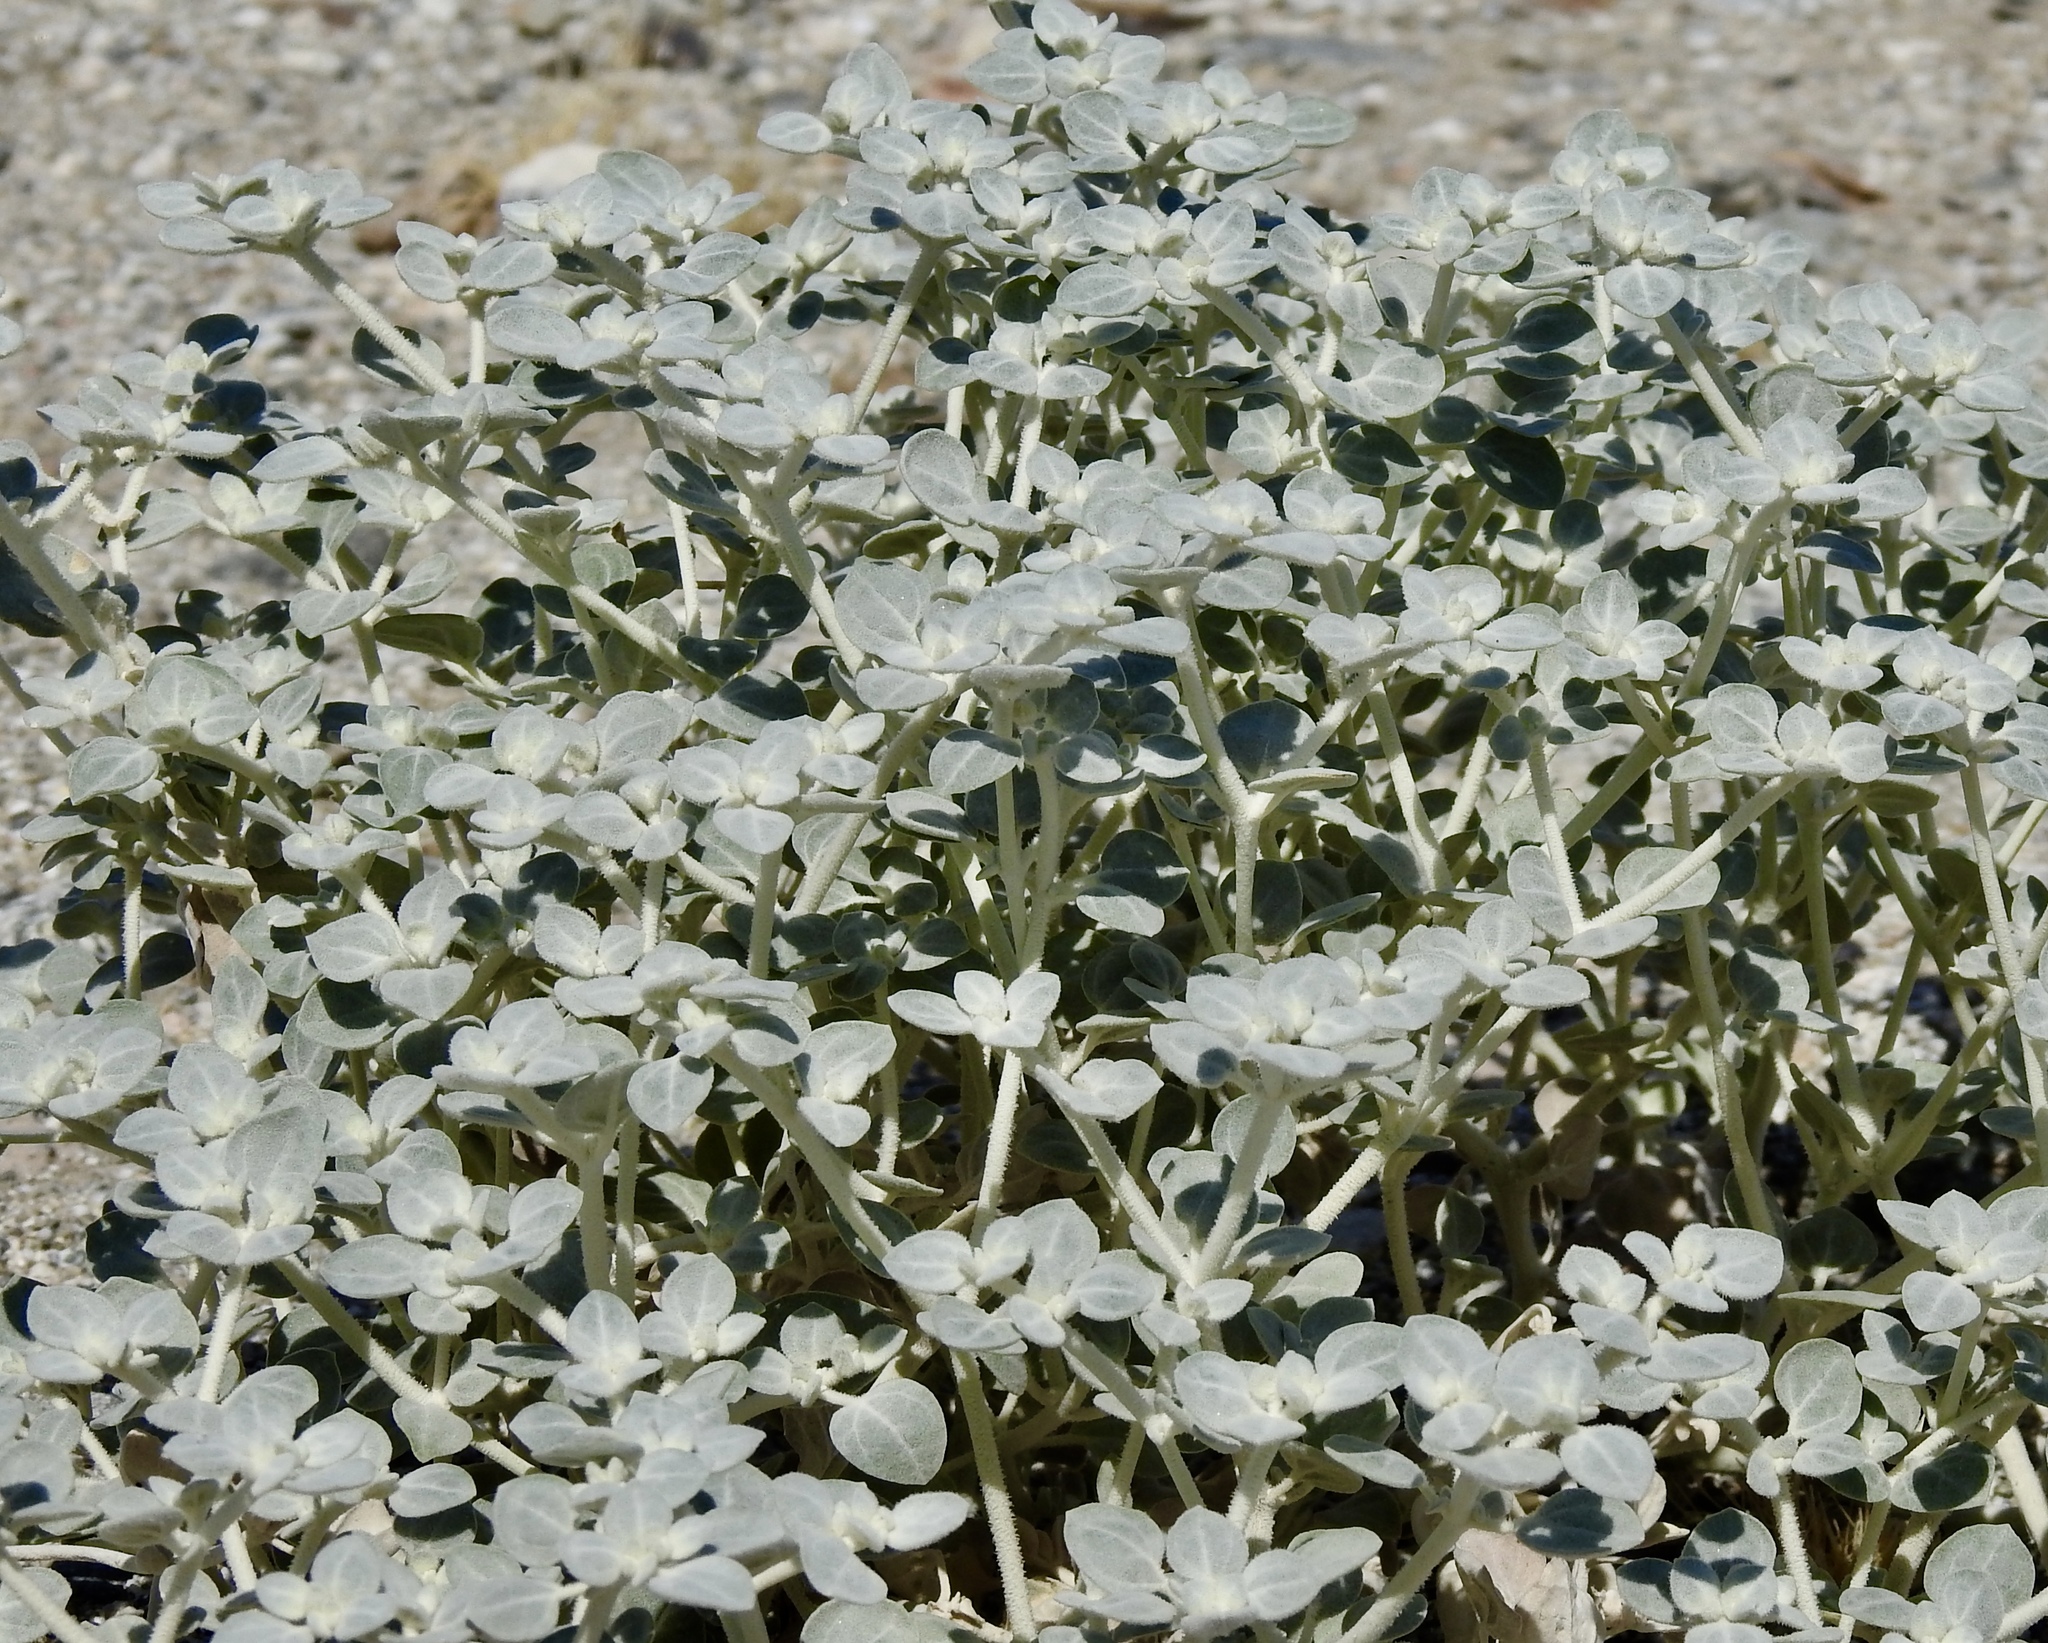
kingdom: Plantae
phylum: Tracheophyta
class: Magnoliopsida
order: Caryophyllales
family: Amaranthaceae
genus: Tidestromia
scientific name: Tidestromia suffruticosa
